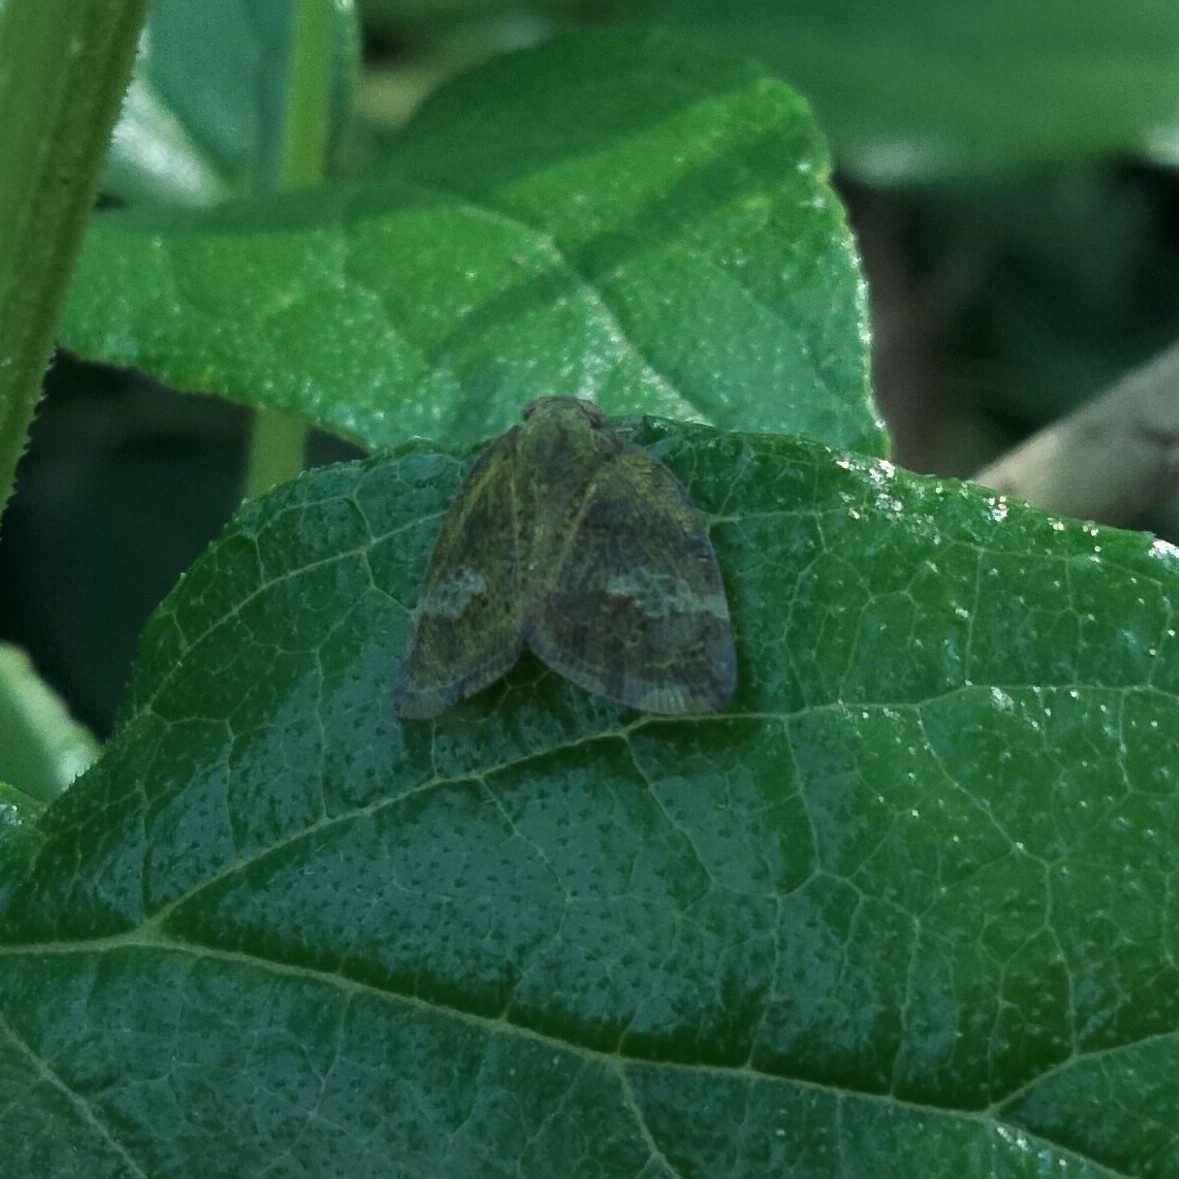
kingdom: Animalia
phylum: Arthropoda
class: Insecta
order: Hemiptera
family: Ricaniidae
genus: Ricania
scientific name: Ricania fenestrata
